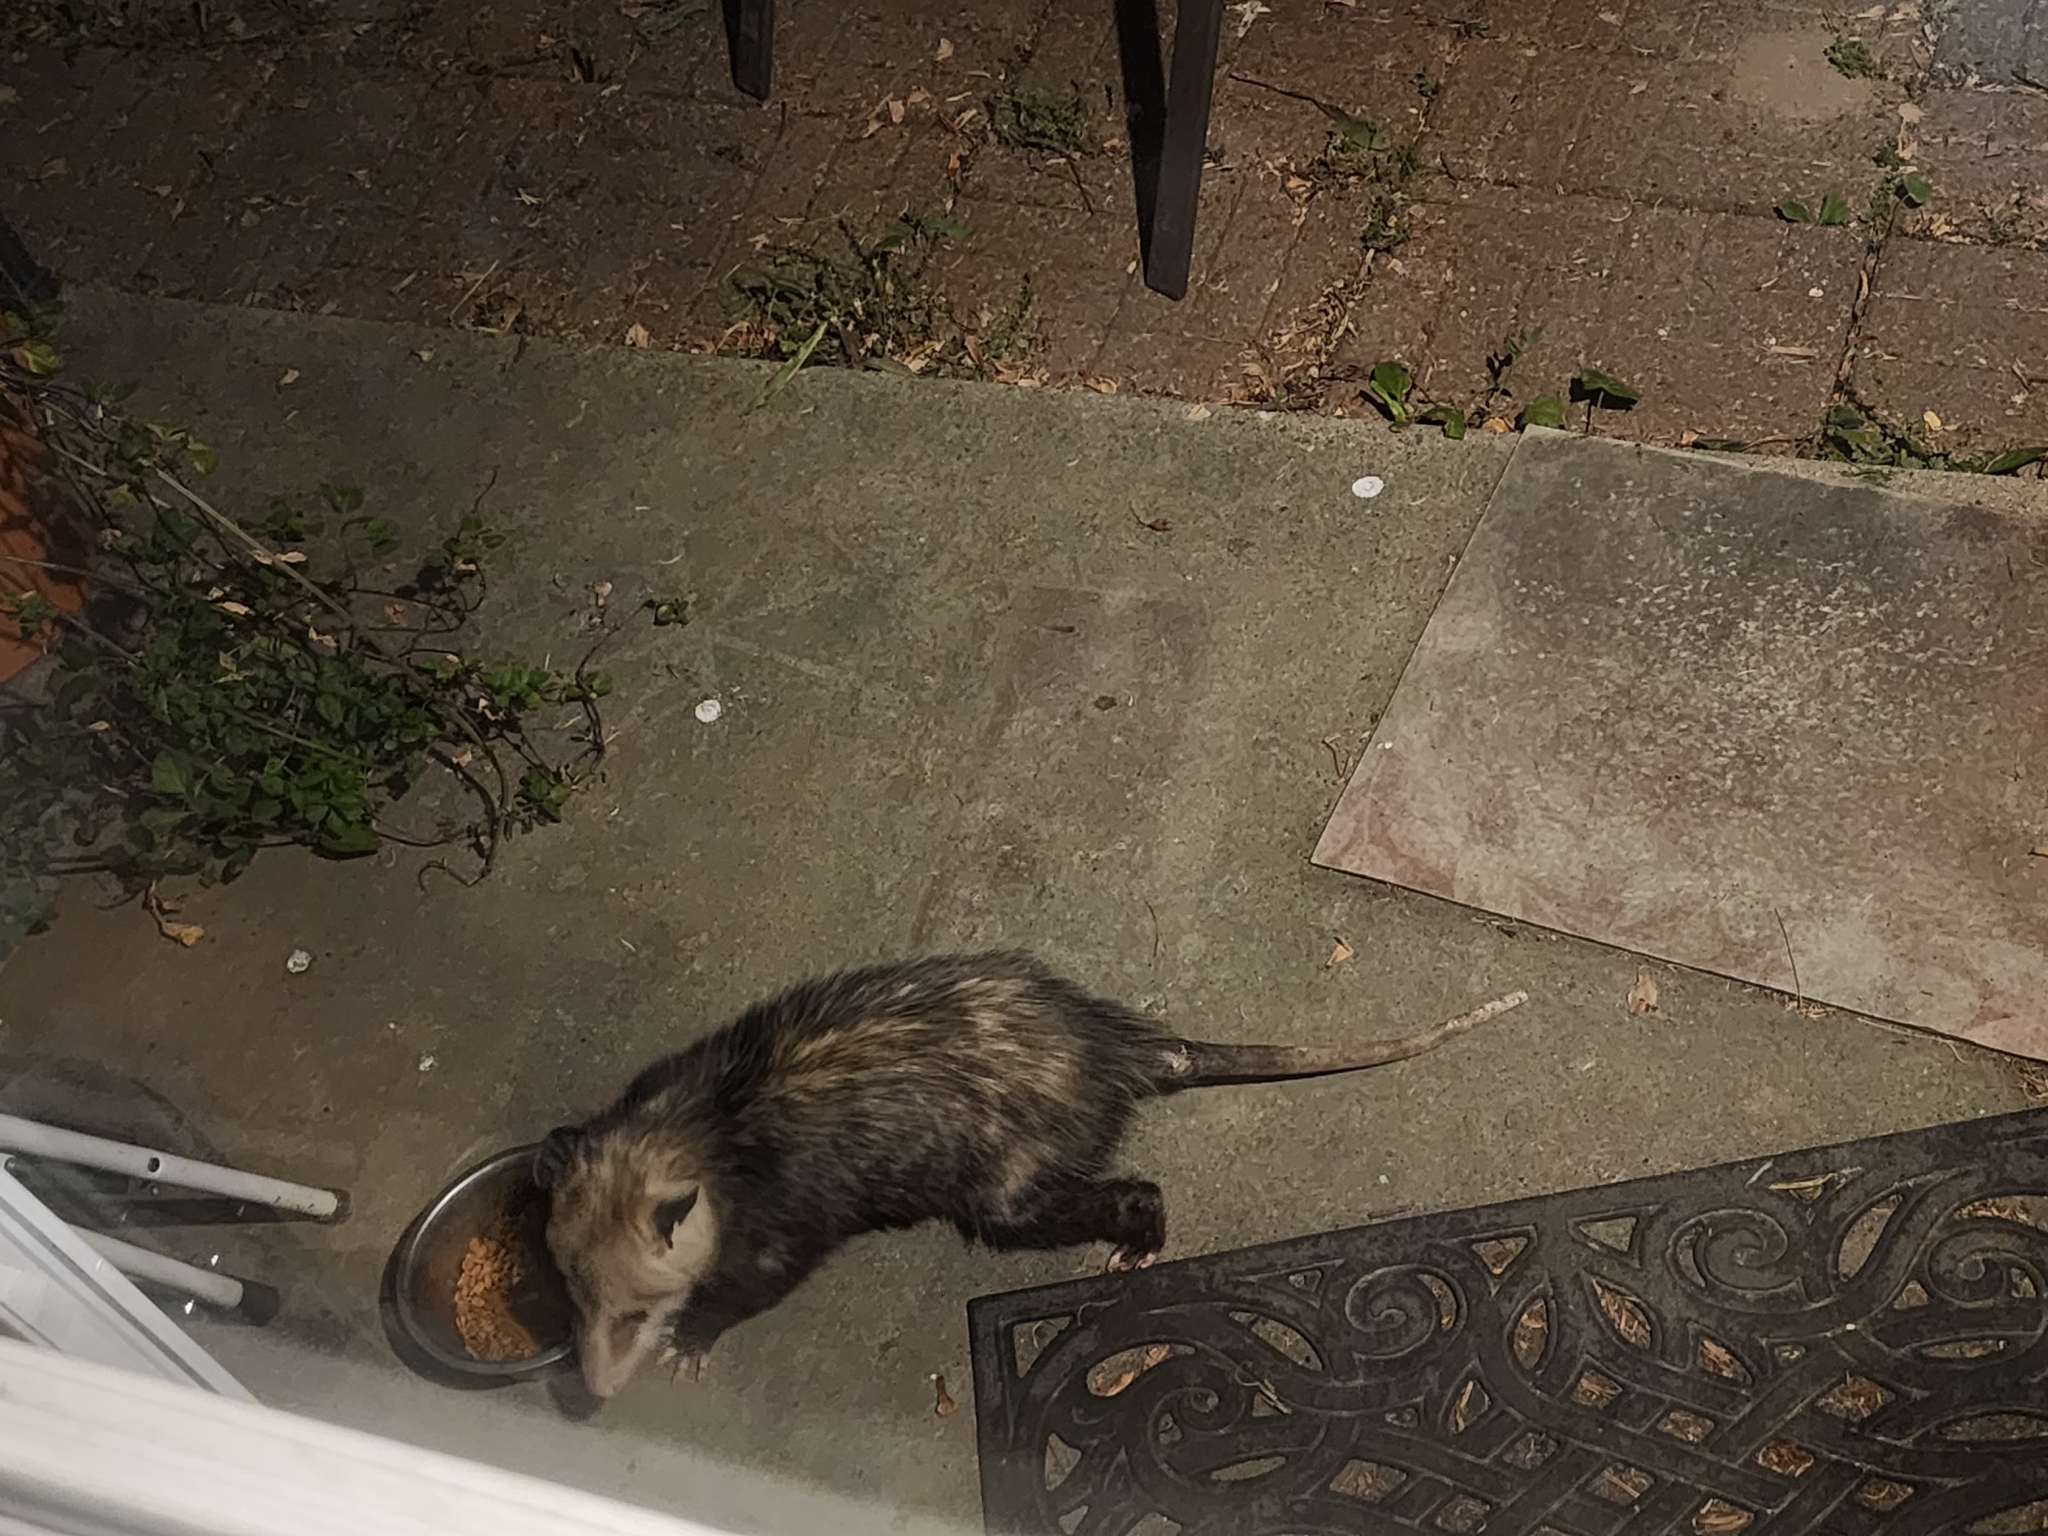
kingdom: Animalia
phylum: Chordata
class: Mammalia
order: Didelphimorphia
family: Didelphidae
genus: Didelphis
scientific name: Didelphis virginiana
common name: Virginia opossum
